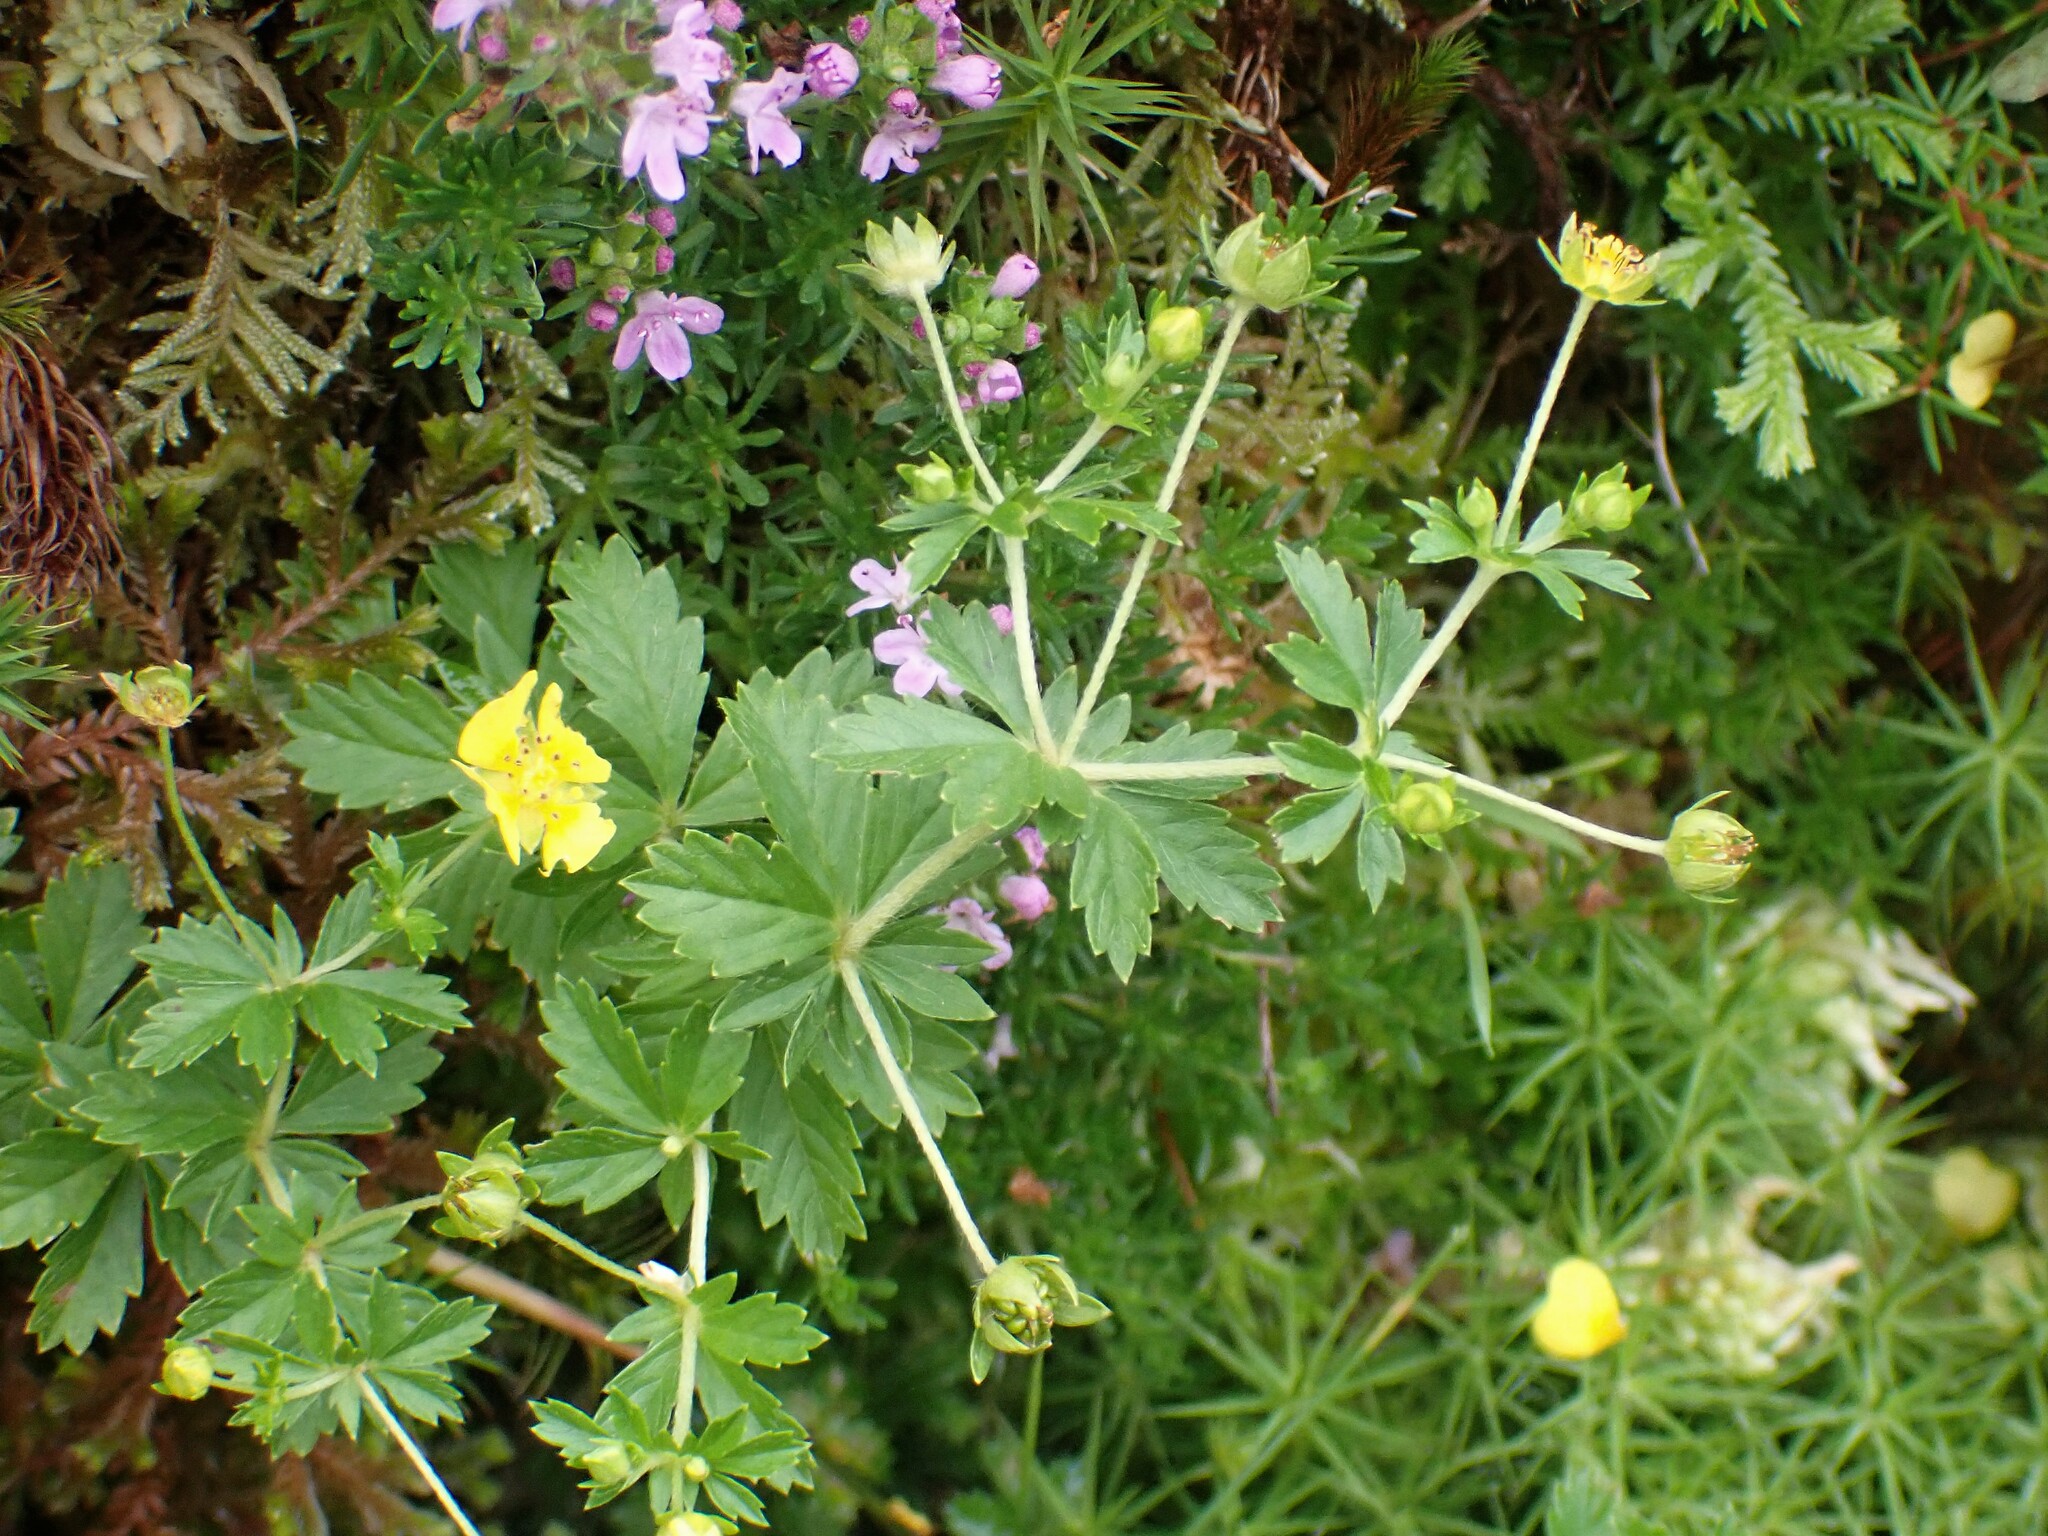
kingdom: Plantae
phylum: Tracheophyta
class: Magnoliopsida
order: Rosales
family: Rosaceae
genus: Potentilla
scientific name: Potentilla erecta
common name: Tormentil
